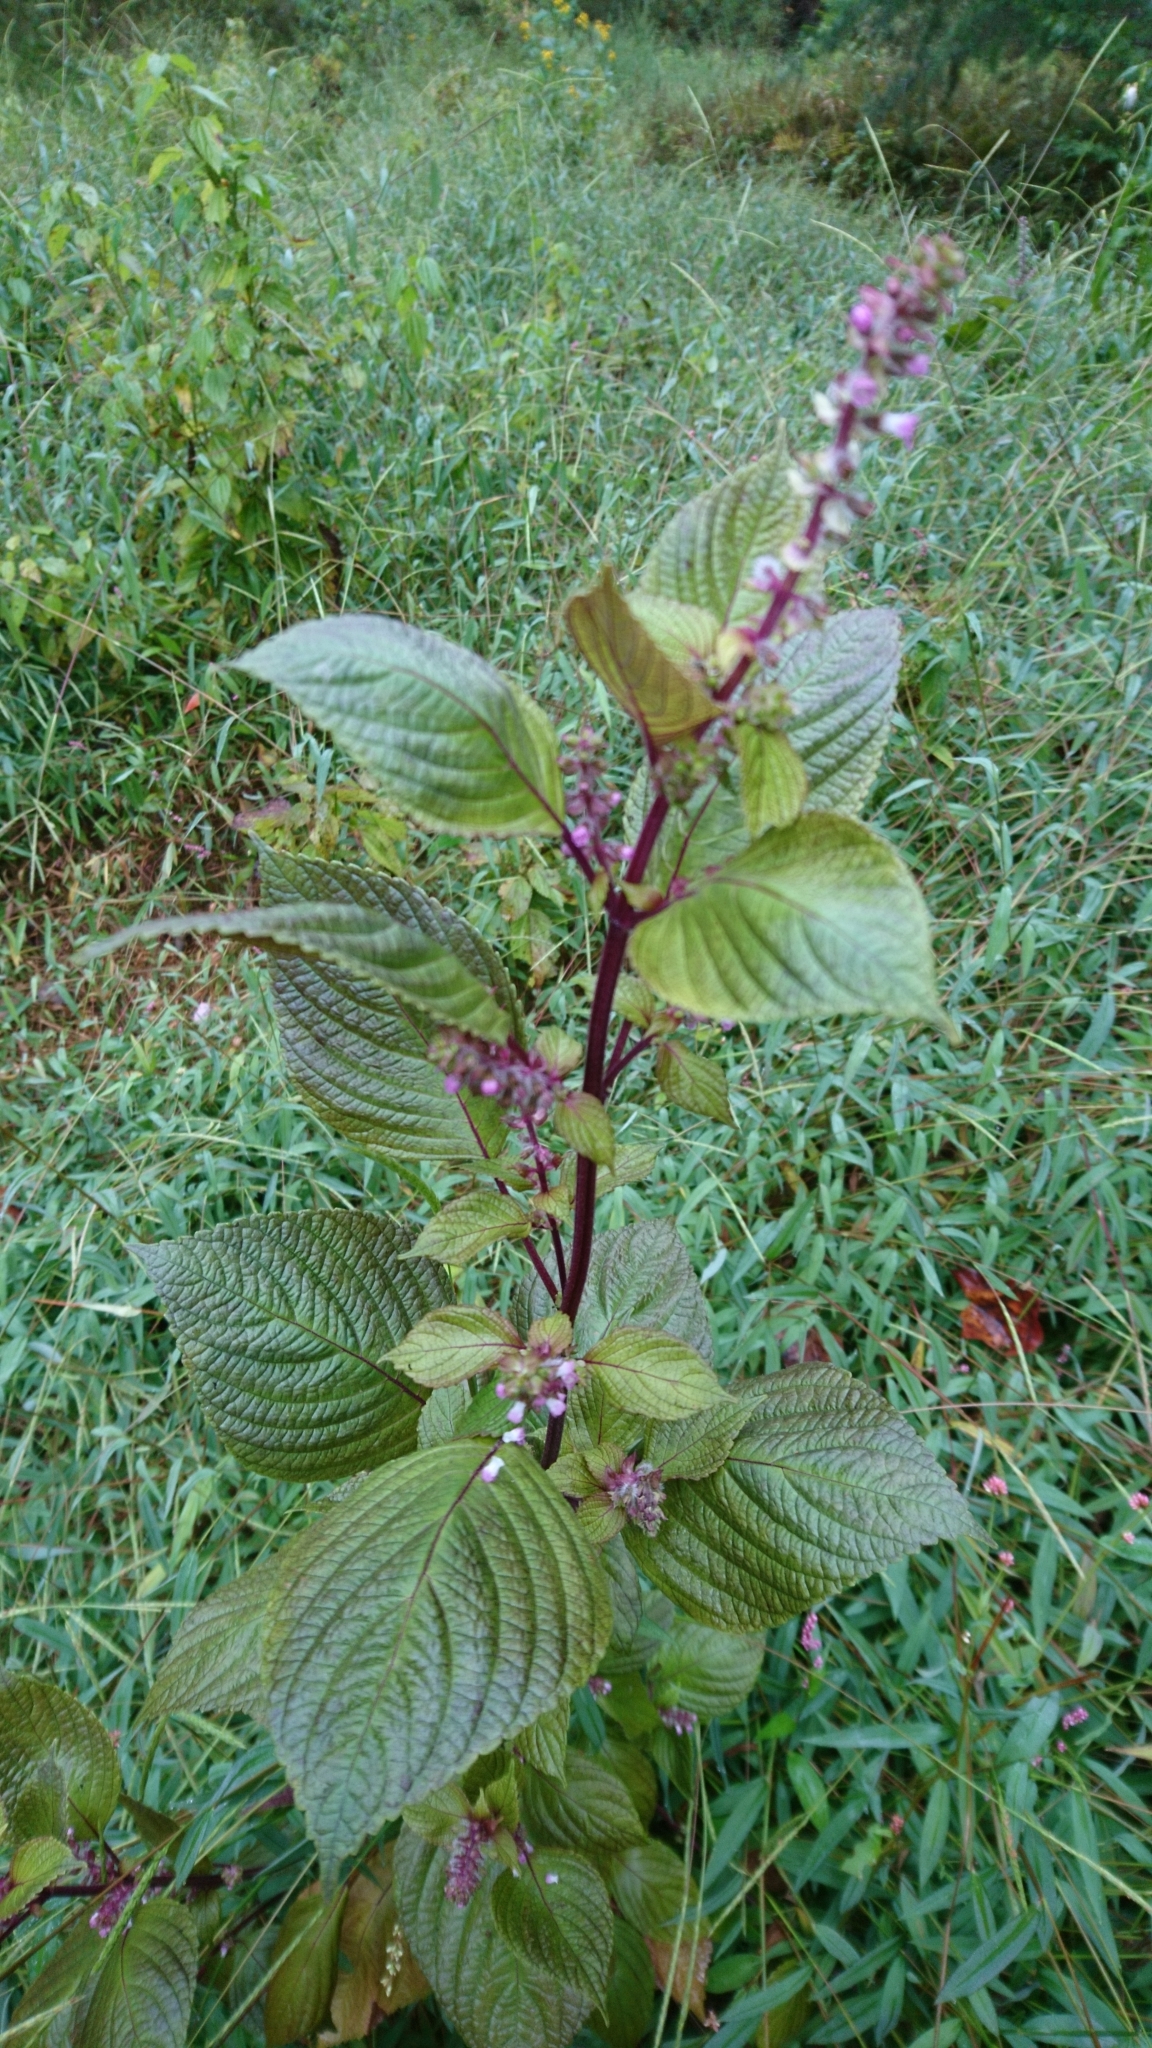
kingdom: Plantae
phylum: Tracheophyta
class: Magnoliopsida
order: Lamiales
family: Lamiaceae
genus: Perilla
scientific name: Perilla frutescens
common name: Perilla
